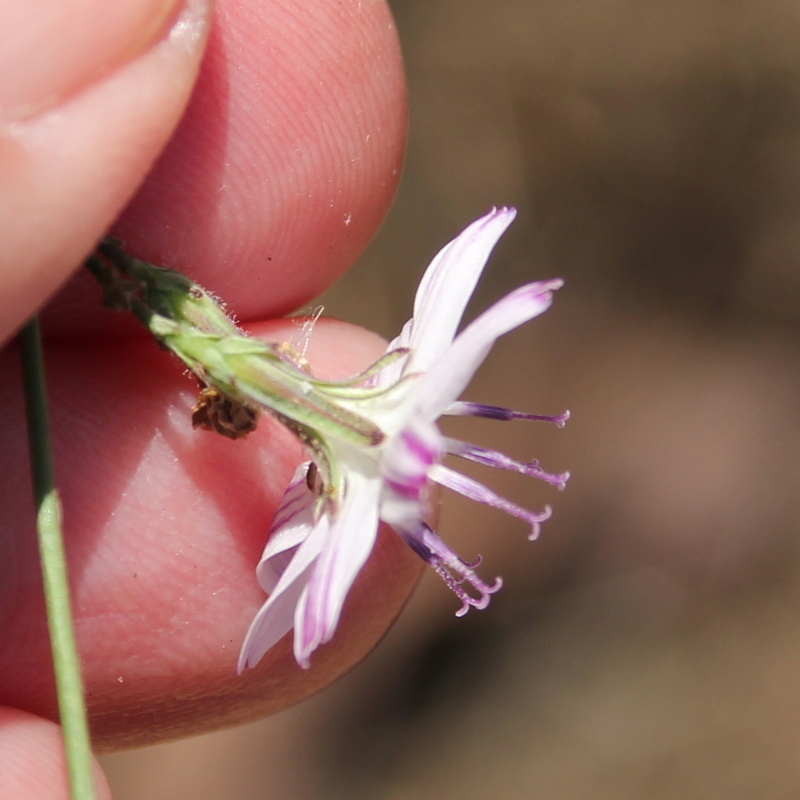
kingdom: Plantae
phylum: Tracheophyta
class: Magnoliopsida
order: Asterales
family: Asteraceae
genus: Stephanomeria
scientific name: Stephanomeria diegensis
